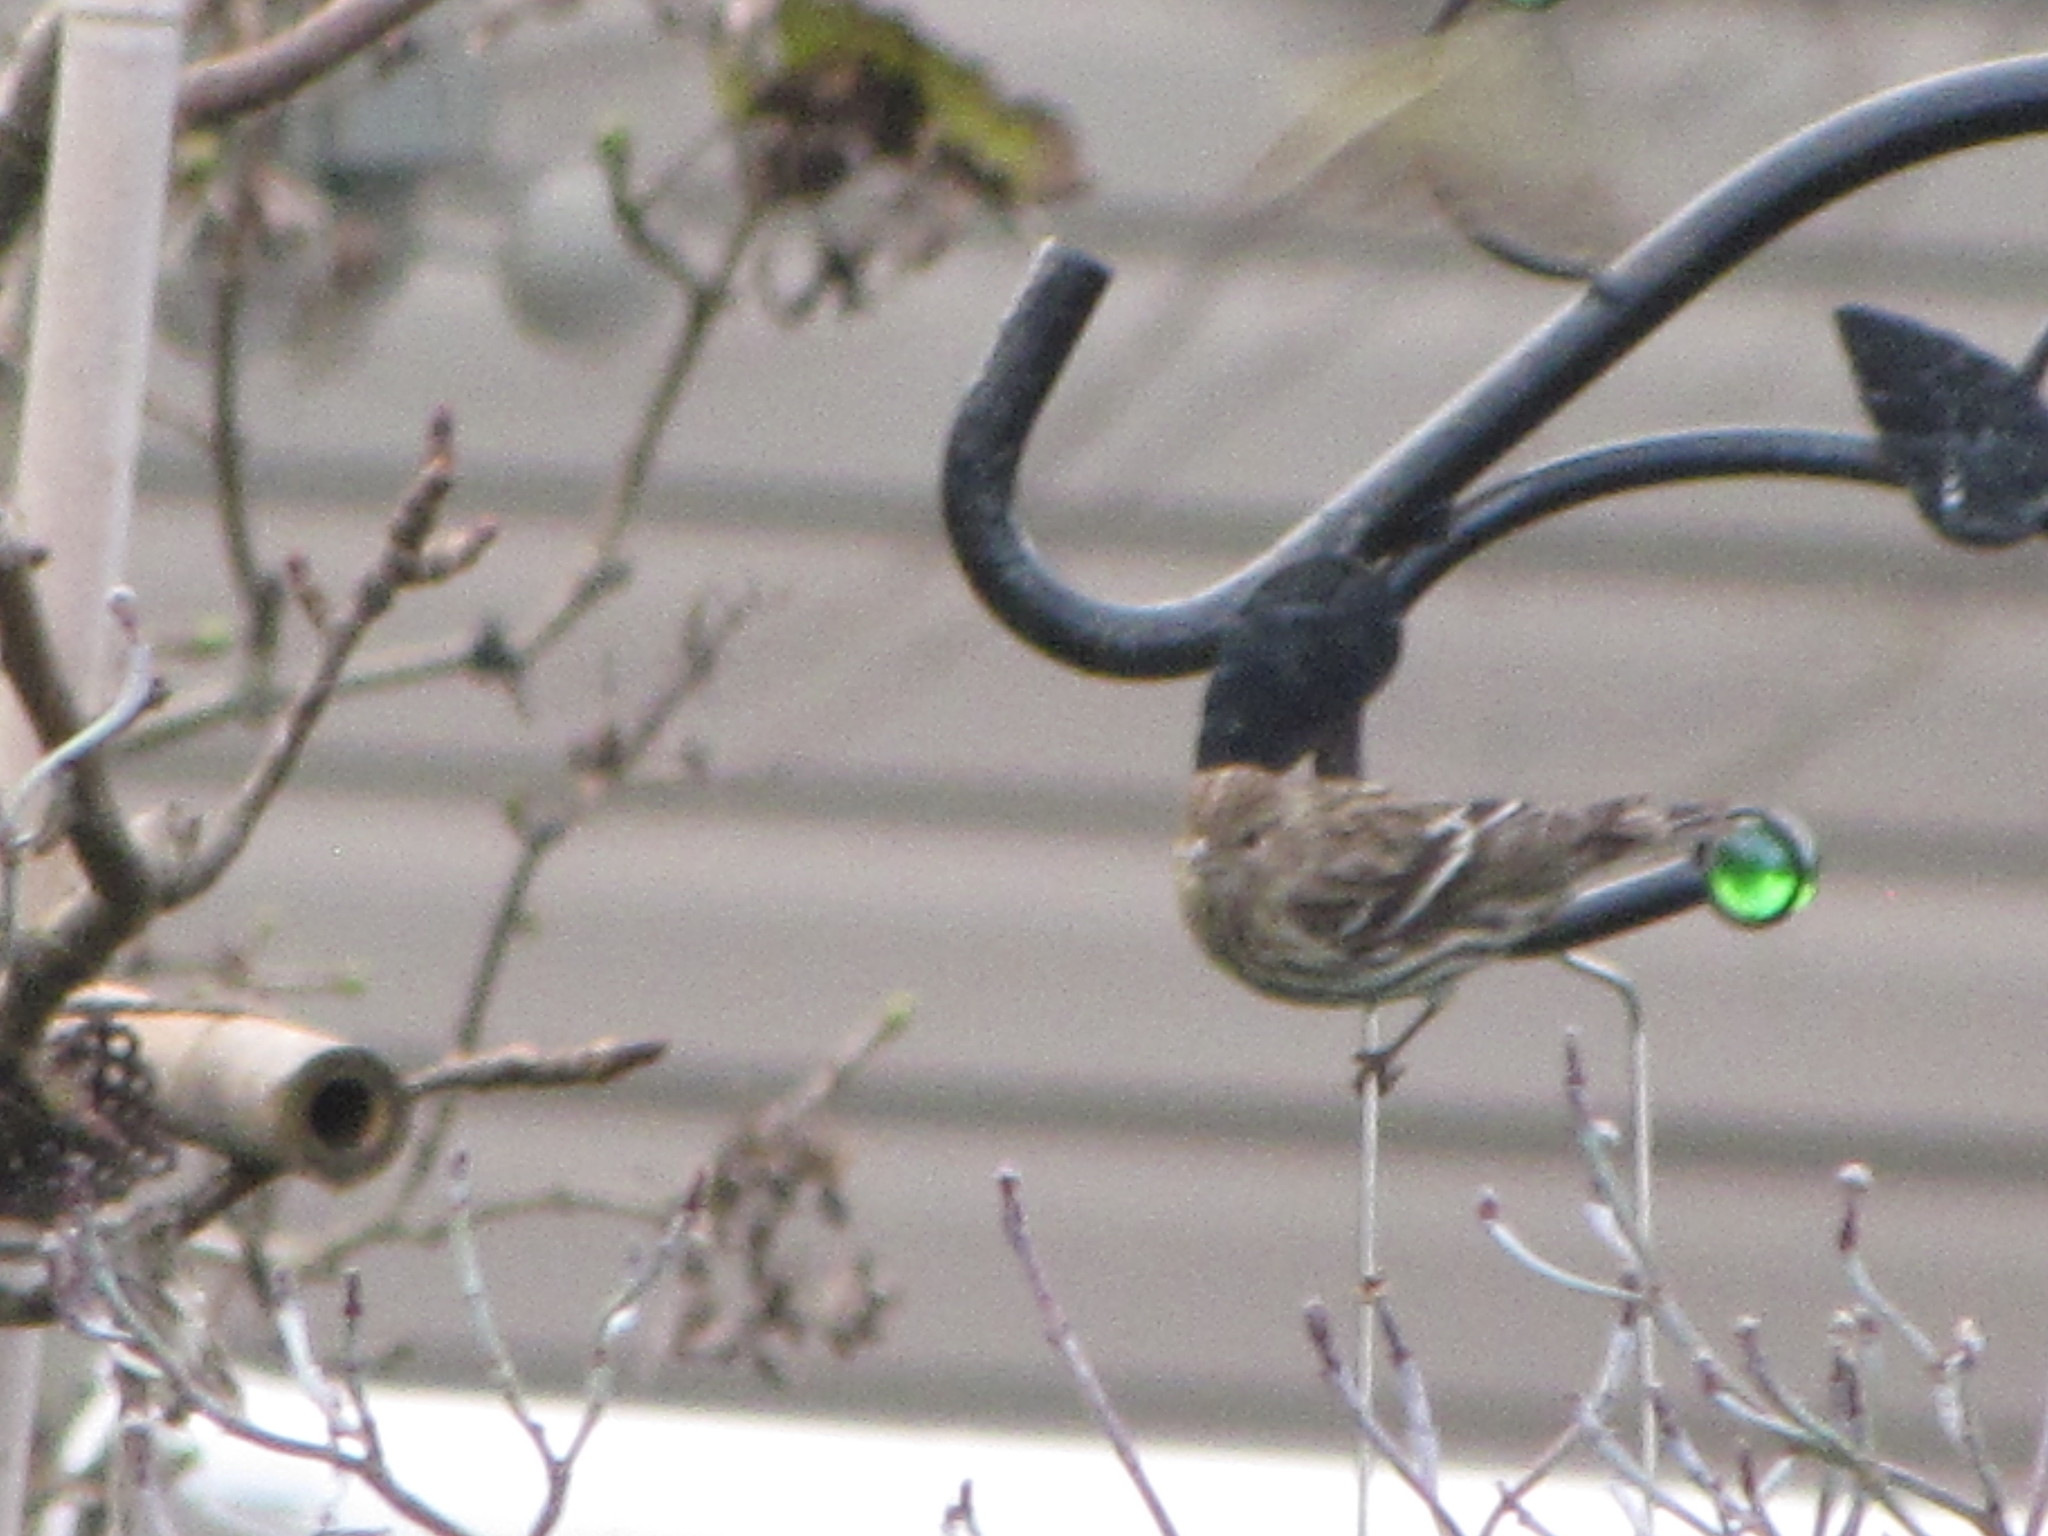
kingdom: Animalia
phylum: Chordata
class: Aves
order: Passeriformes
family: Fringillidae
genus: Spinus
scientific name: Spinus pinus
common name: Pine siskin
